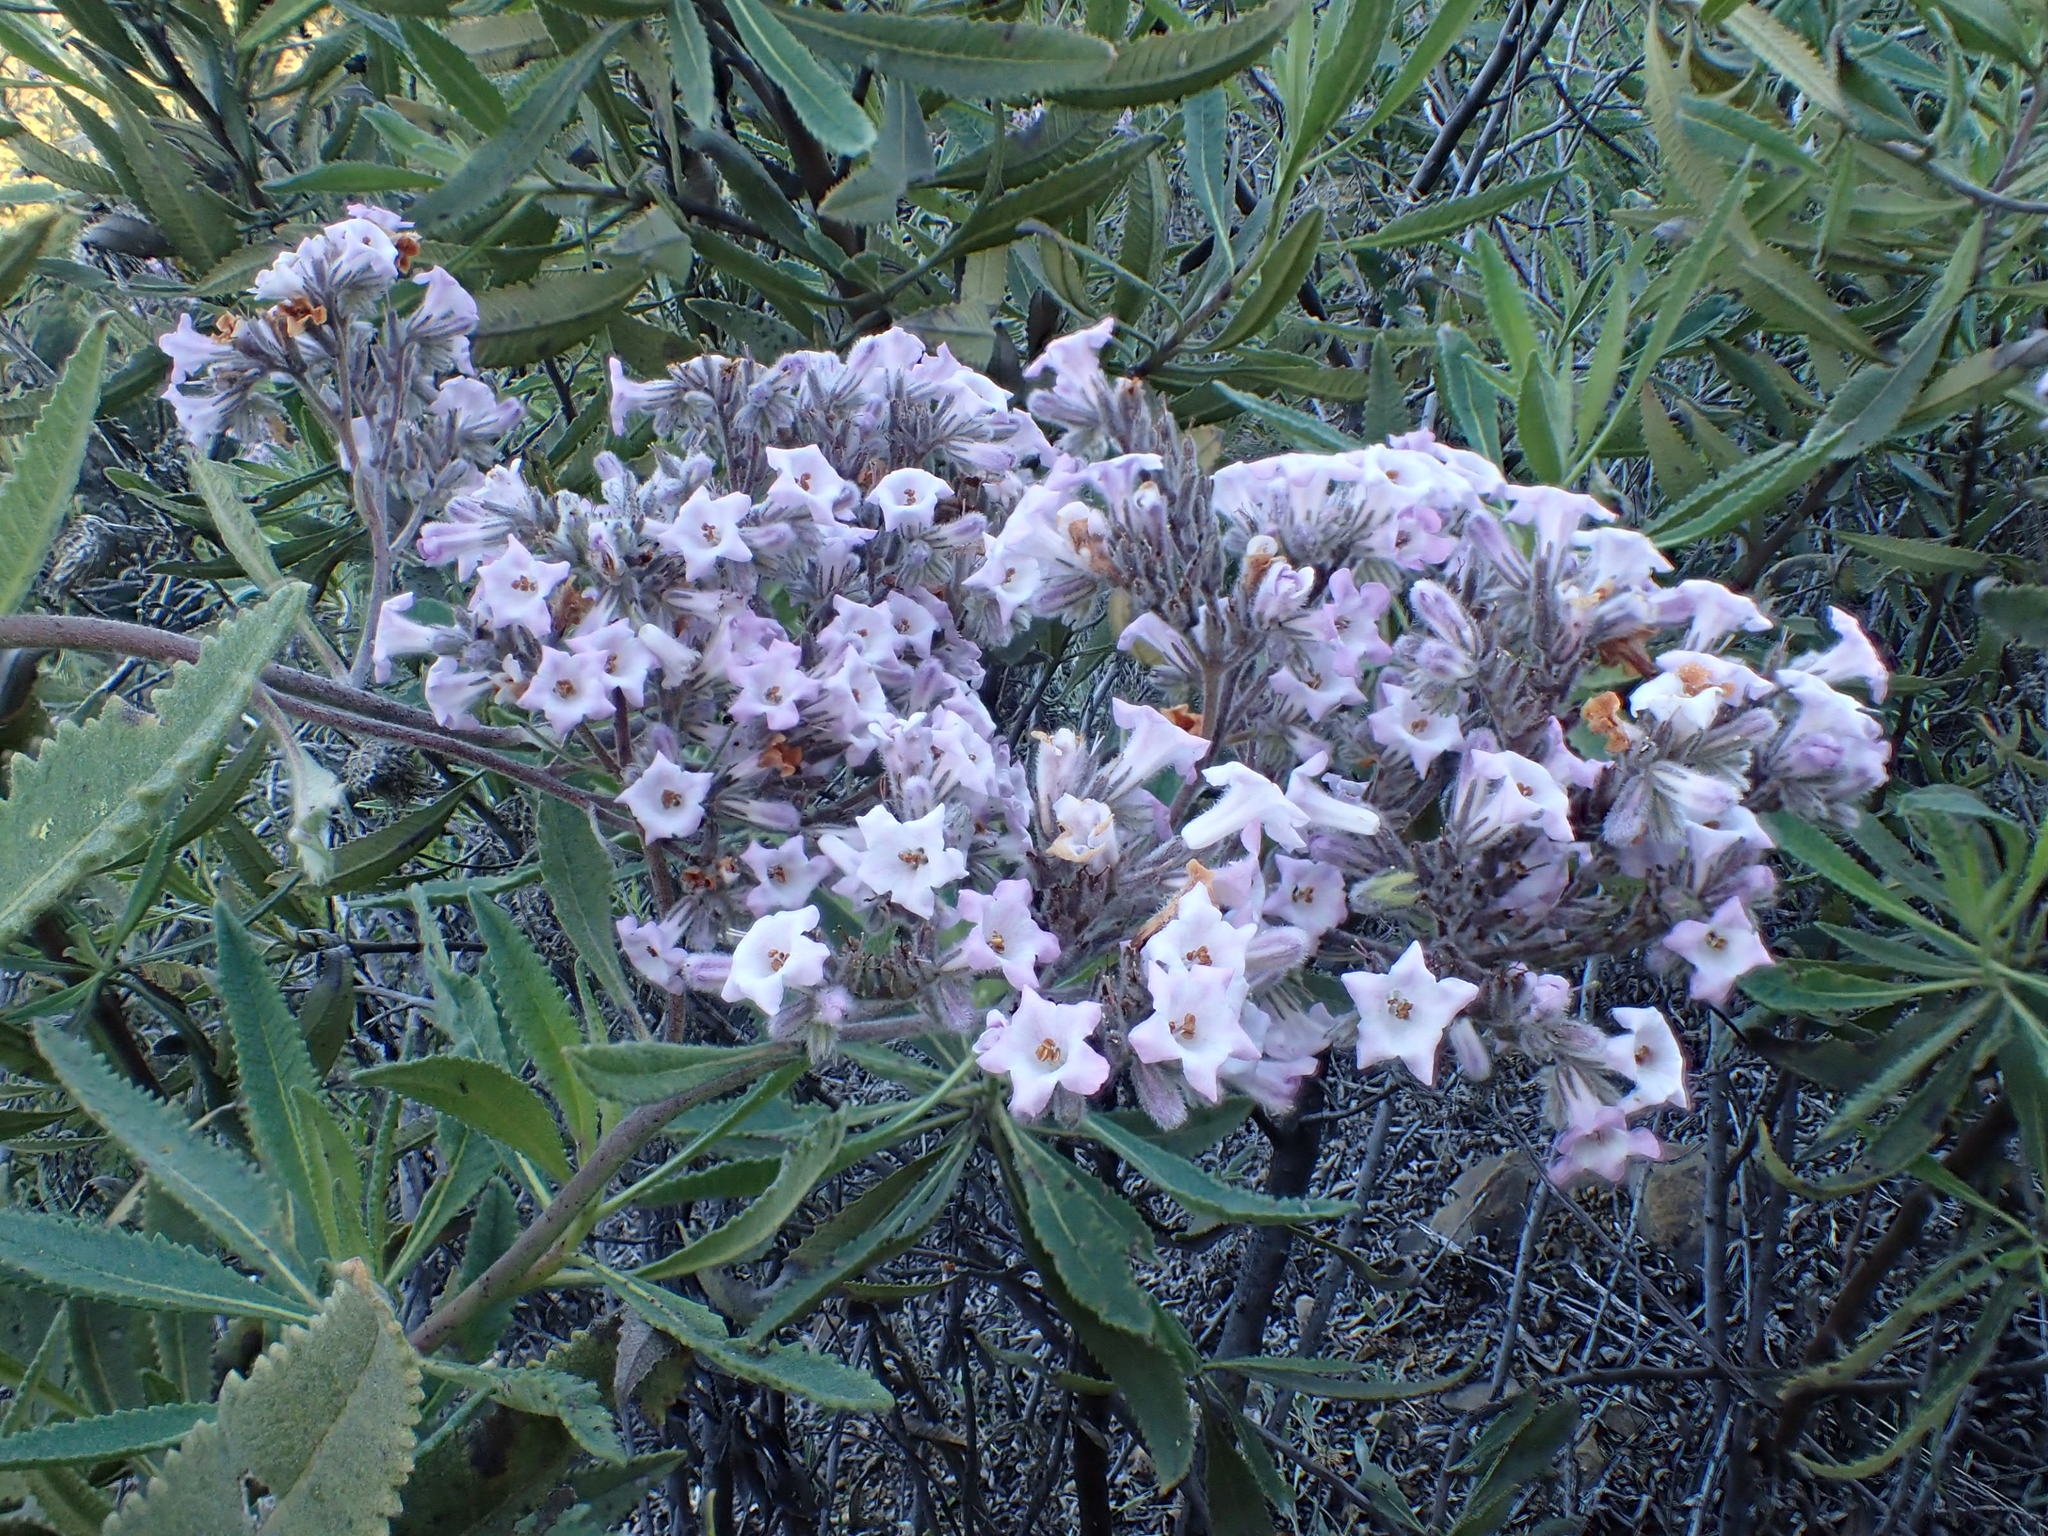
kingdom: Plantae
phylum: Tracheophyta
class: Magnoliopsida
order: Boraginales
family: Namaceae
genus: Eriodictyon
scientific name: Eriodictyon crassifolium
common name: Thick-leaf yerba-santa
